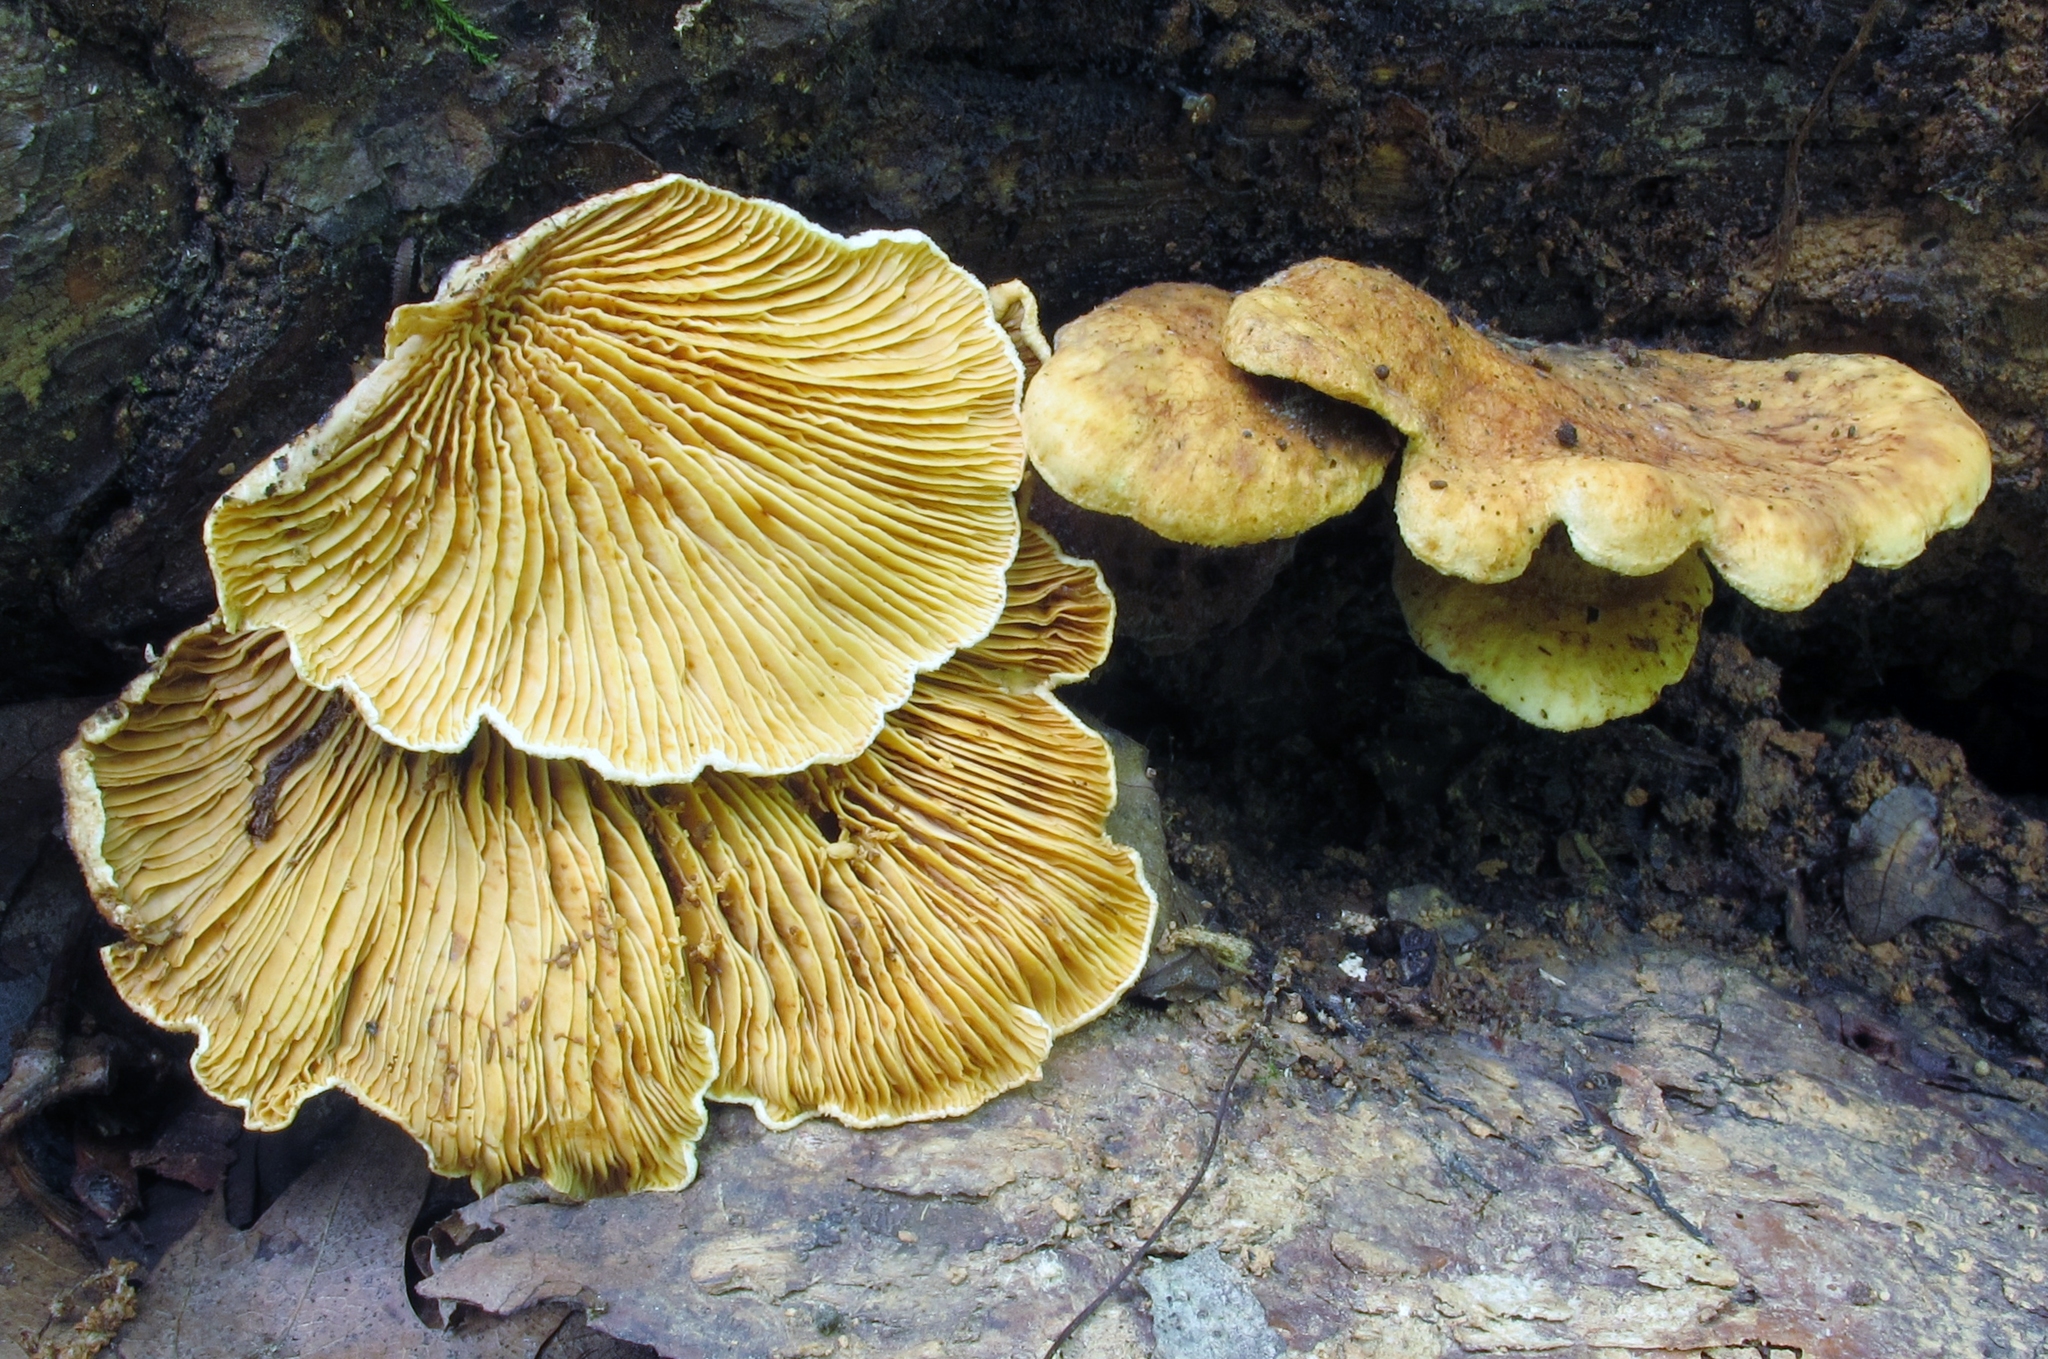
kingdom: Fungi
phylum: Basidiomycota
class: Agaricomycetes
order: Boletales
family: Tapinellaceae
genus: Tapinella
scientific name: Tapinella panuoides
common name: Oyster rollrim
